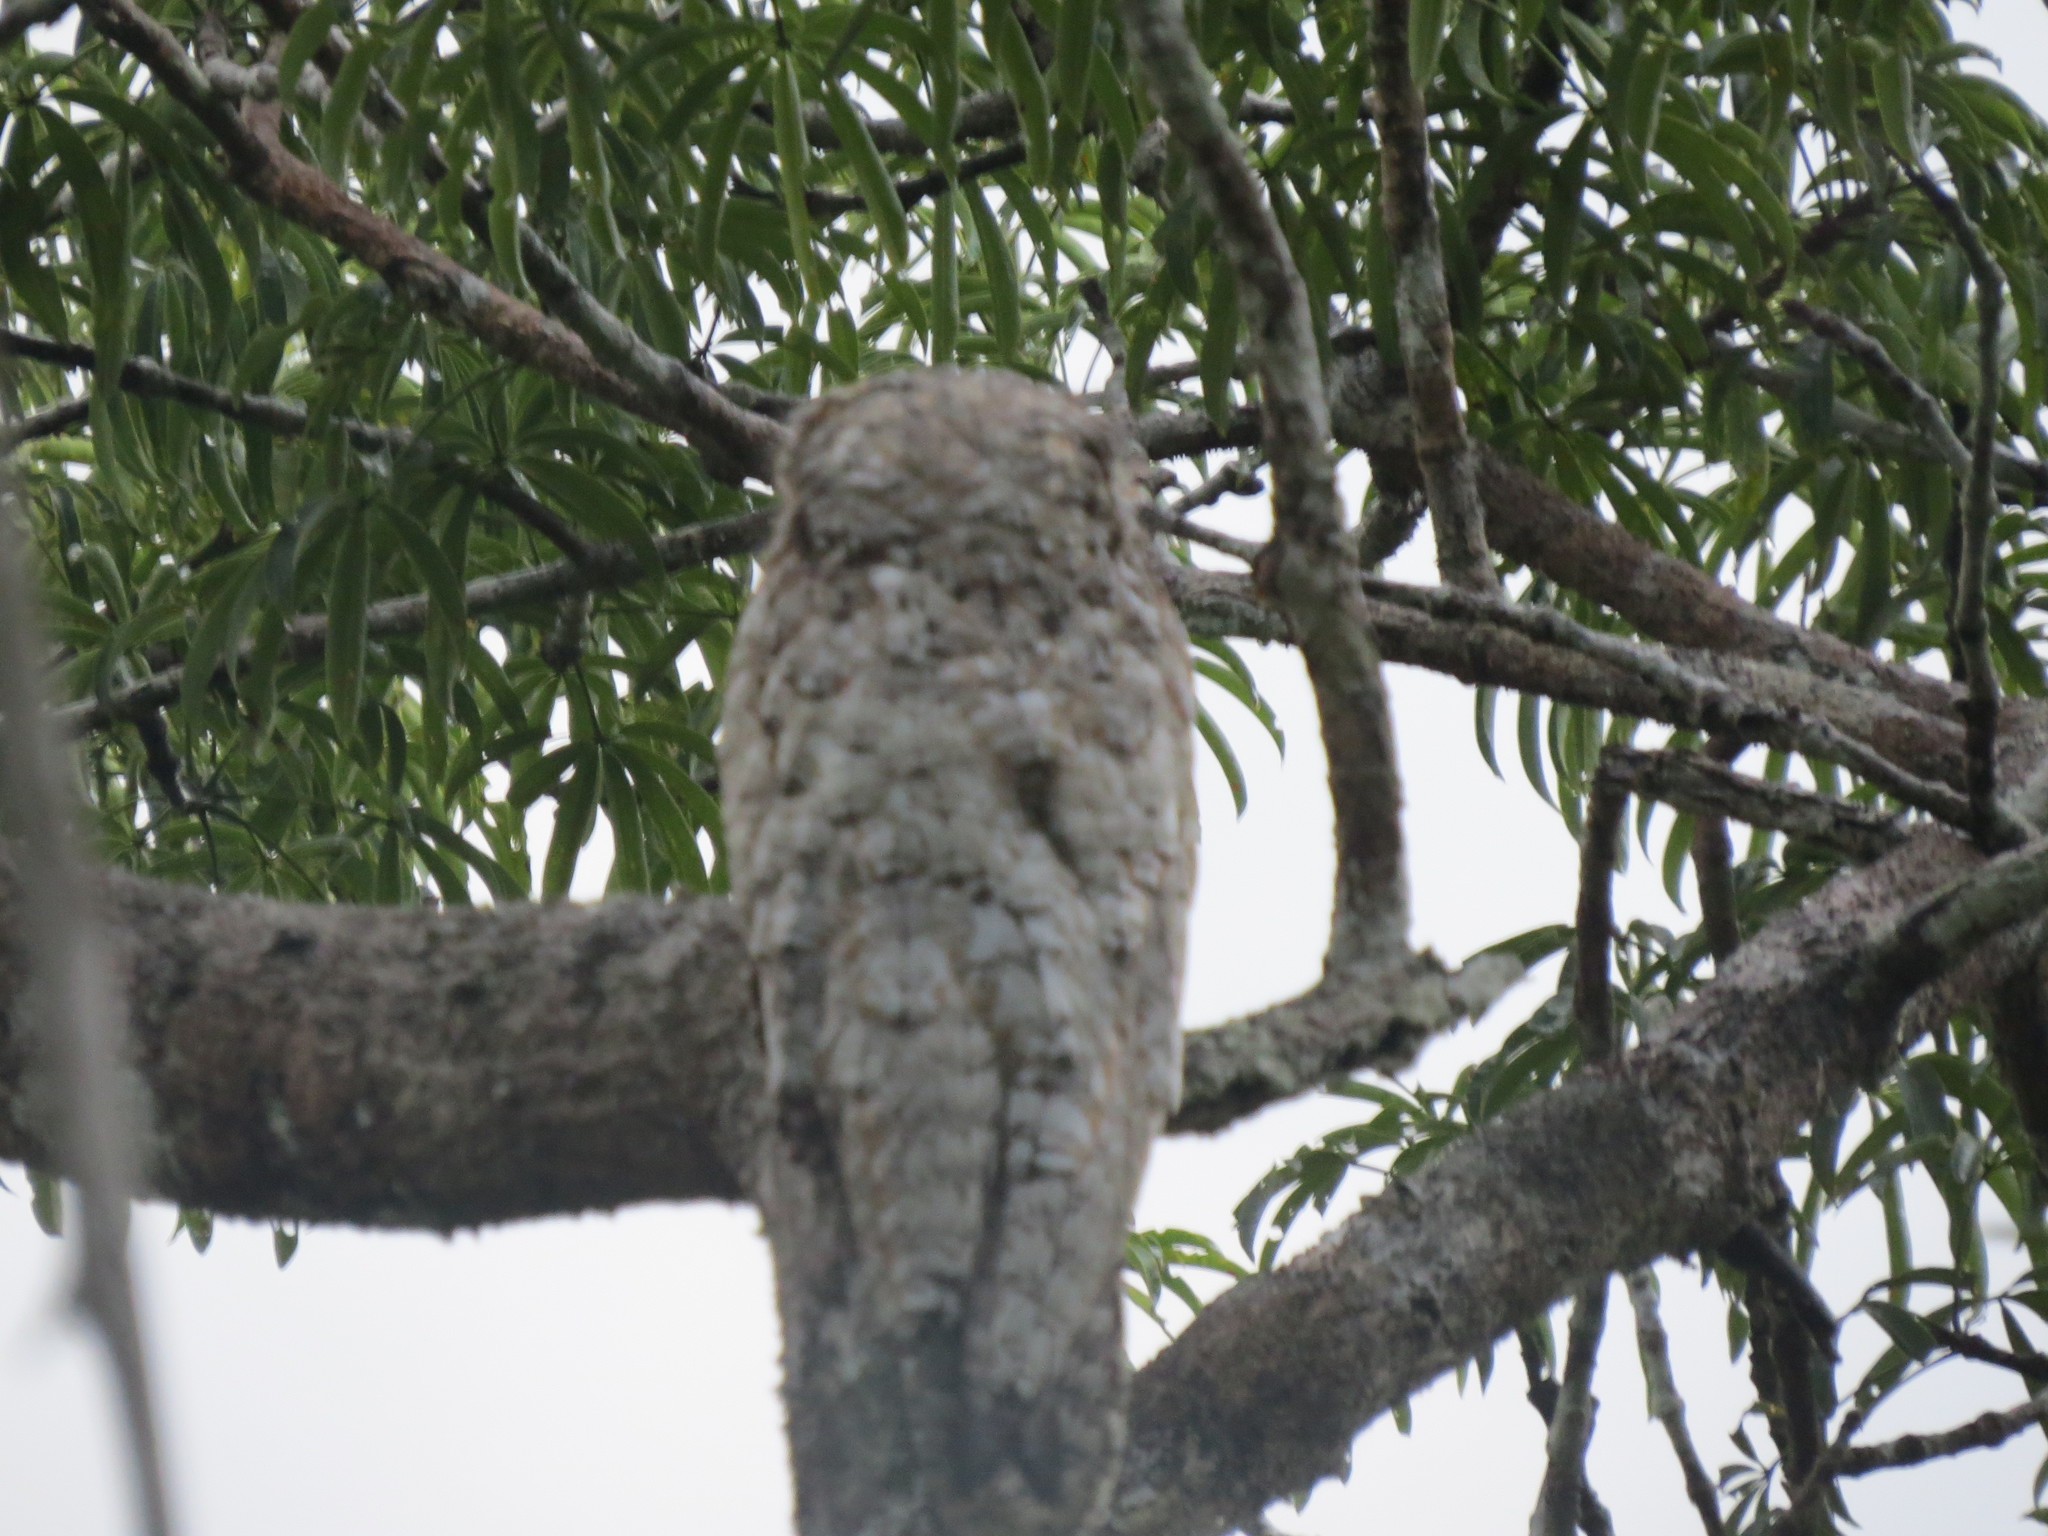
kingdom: Animalia
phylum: Chordata
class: Aves
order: Nyctibiiformes
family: Nyctibiidae
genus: Nyctibius
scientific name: Nyctibius grandis
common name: Great potoo
